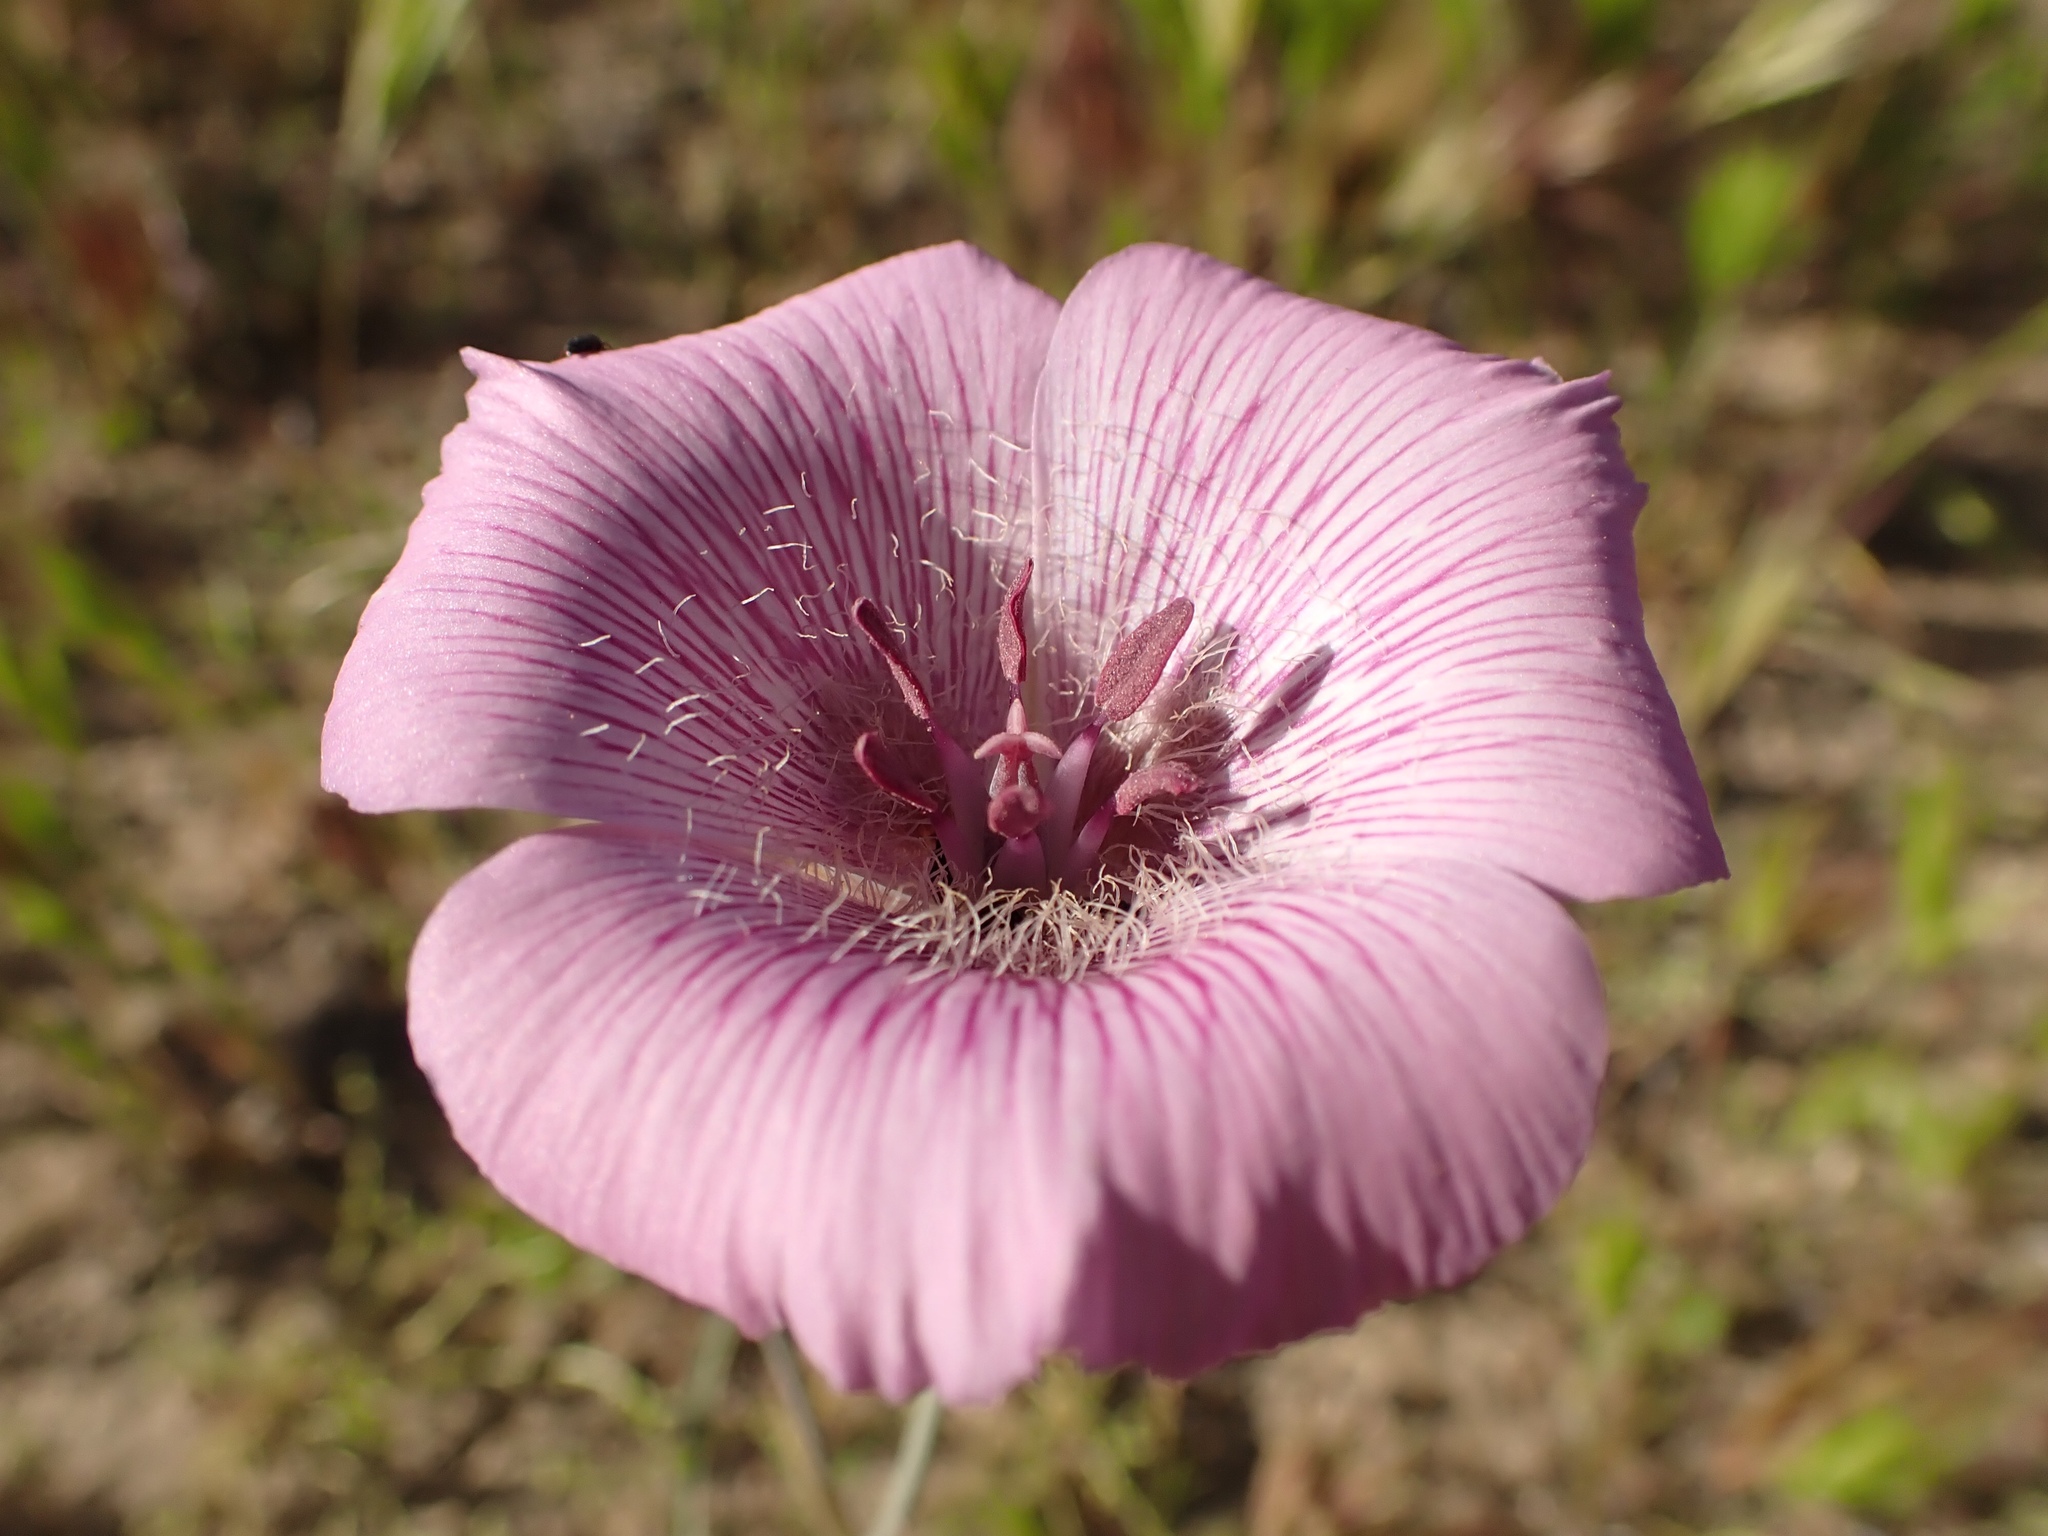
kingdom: Plantae
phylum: Tracheophyta
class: Liliopsida
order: Liliales
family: Liliaceae
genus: Calochortus
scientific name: Calochortus striatus
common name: Alkali mariposa-lily
